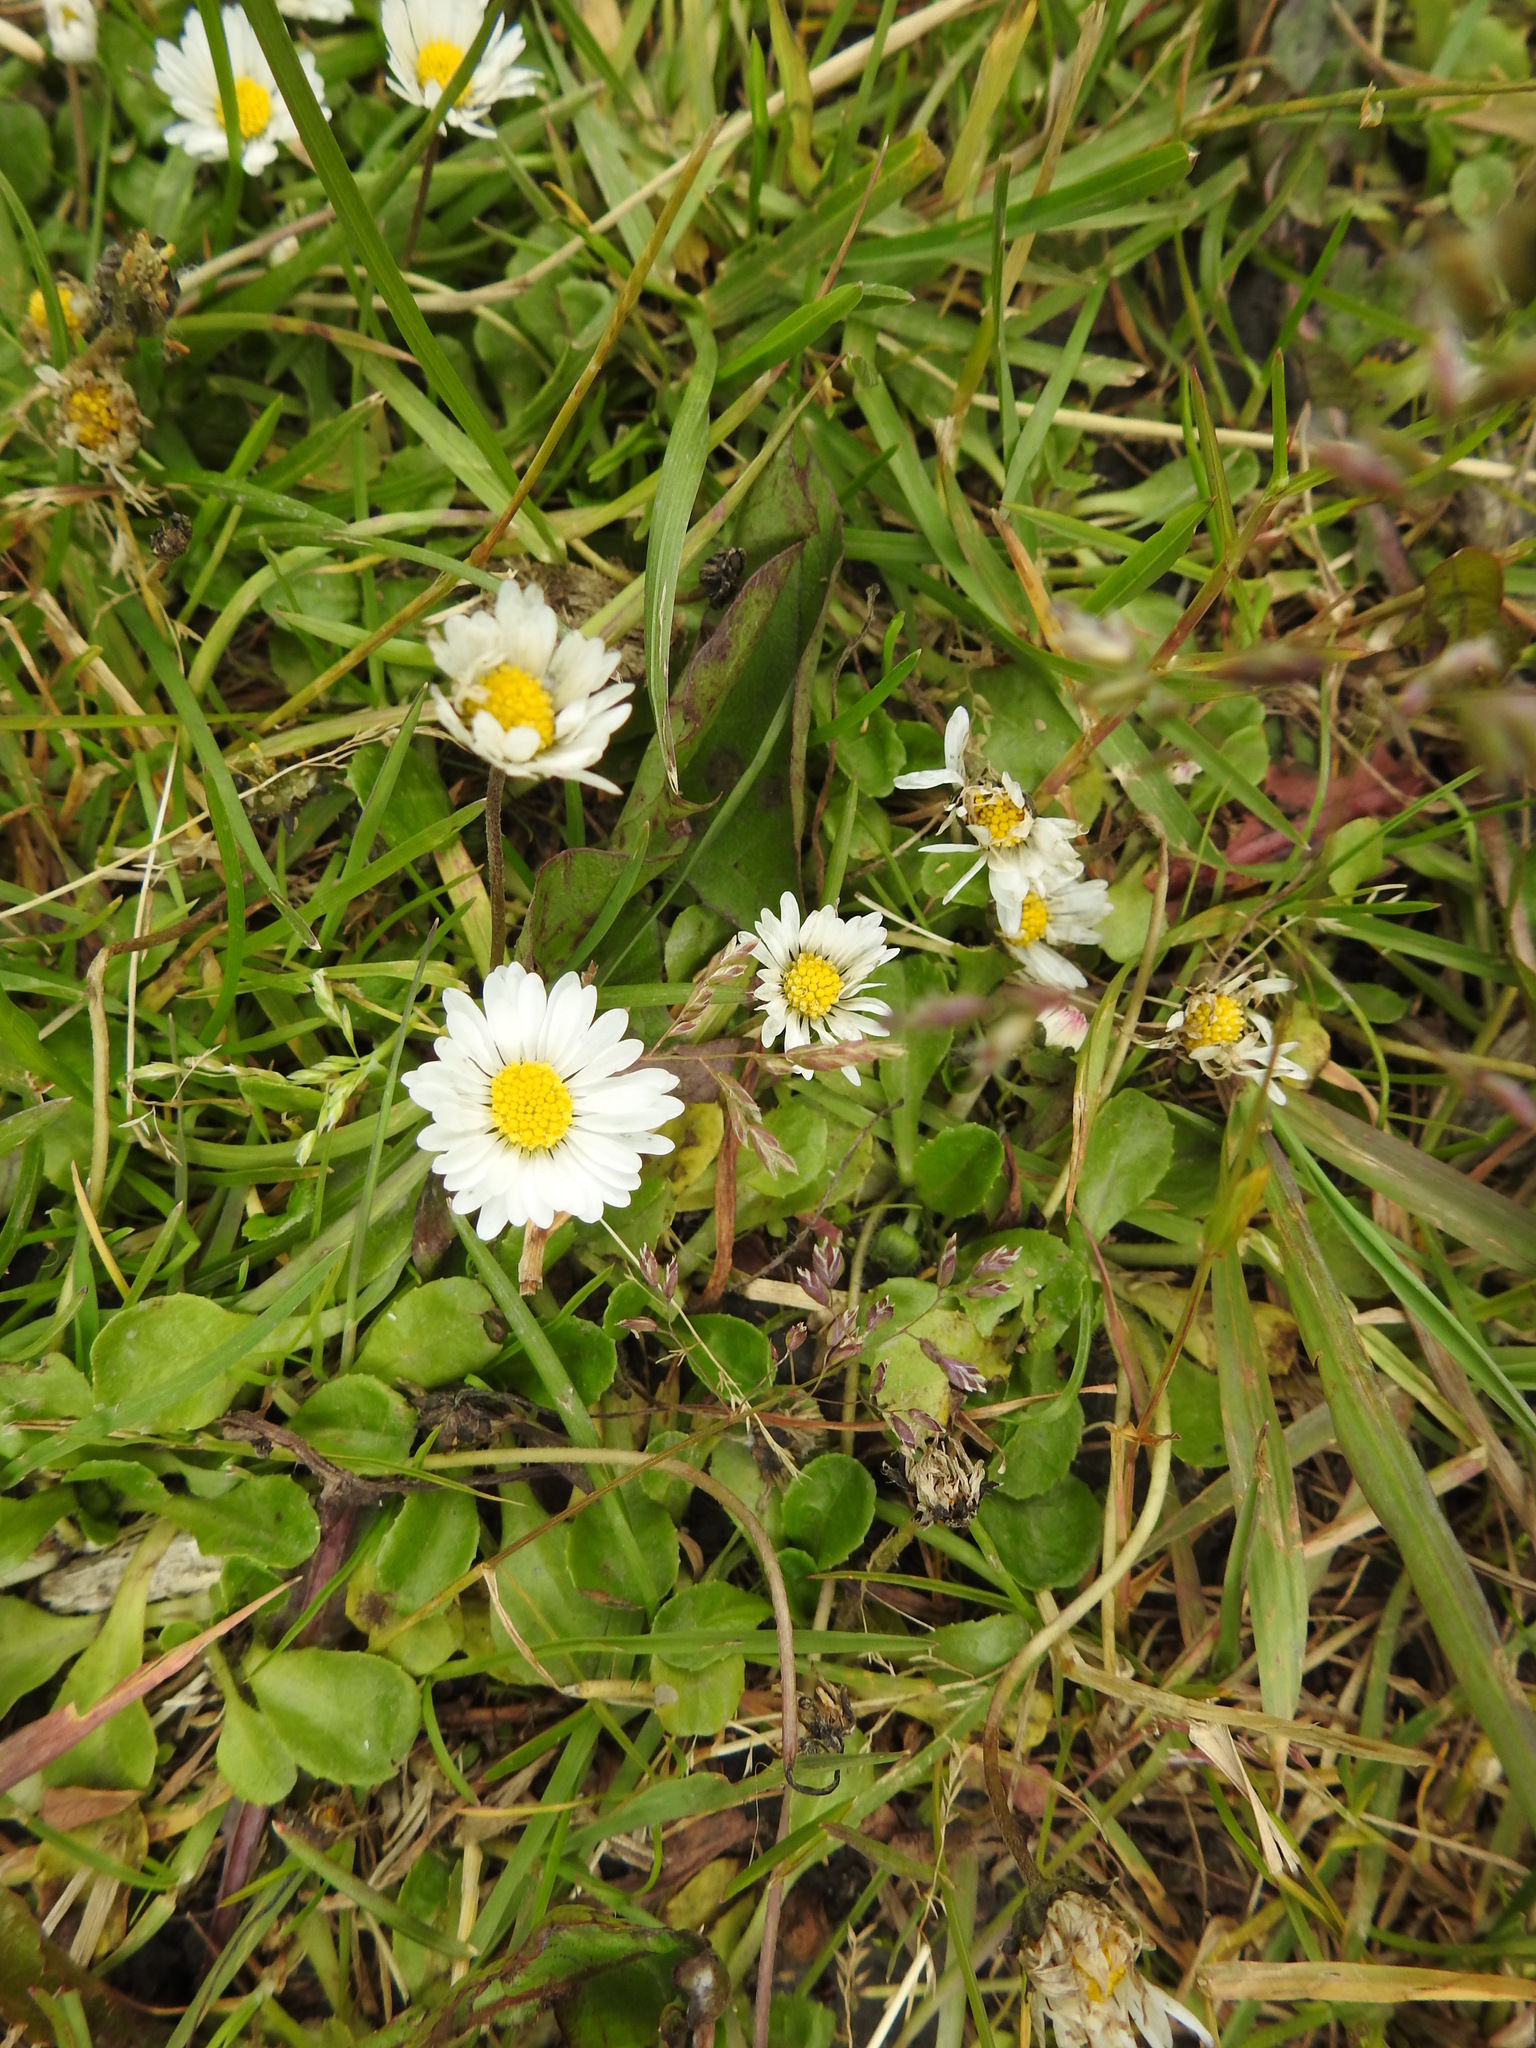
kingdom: Plantae
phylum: Tracheophyta
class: Magnoliopsida
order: Asterales
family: Asteraceae
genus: Bellis
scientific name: Bellis perennis
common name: Lawndaisy
